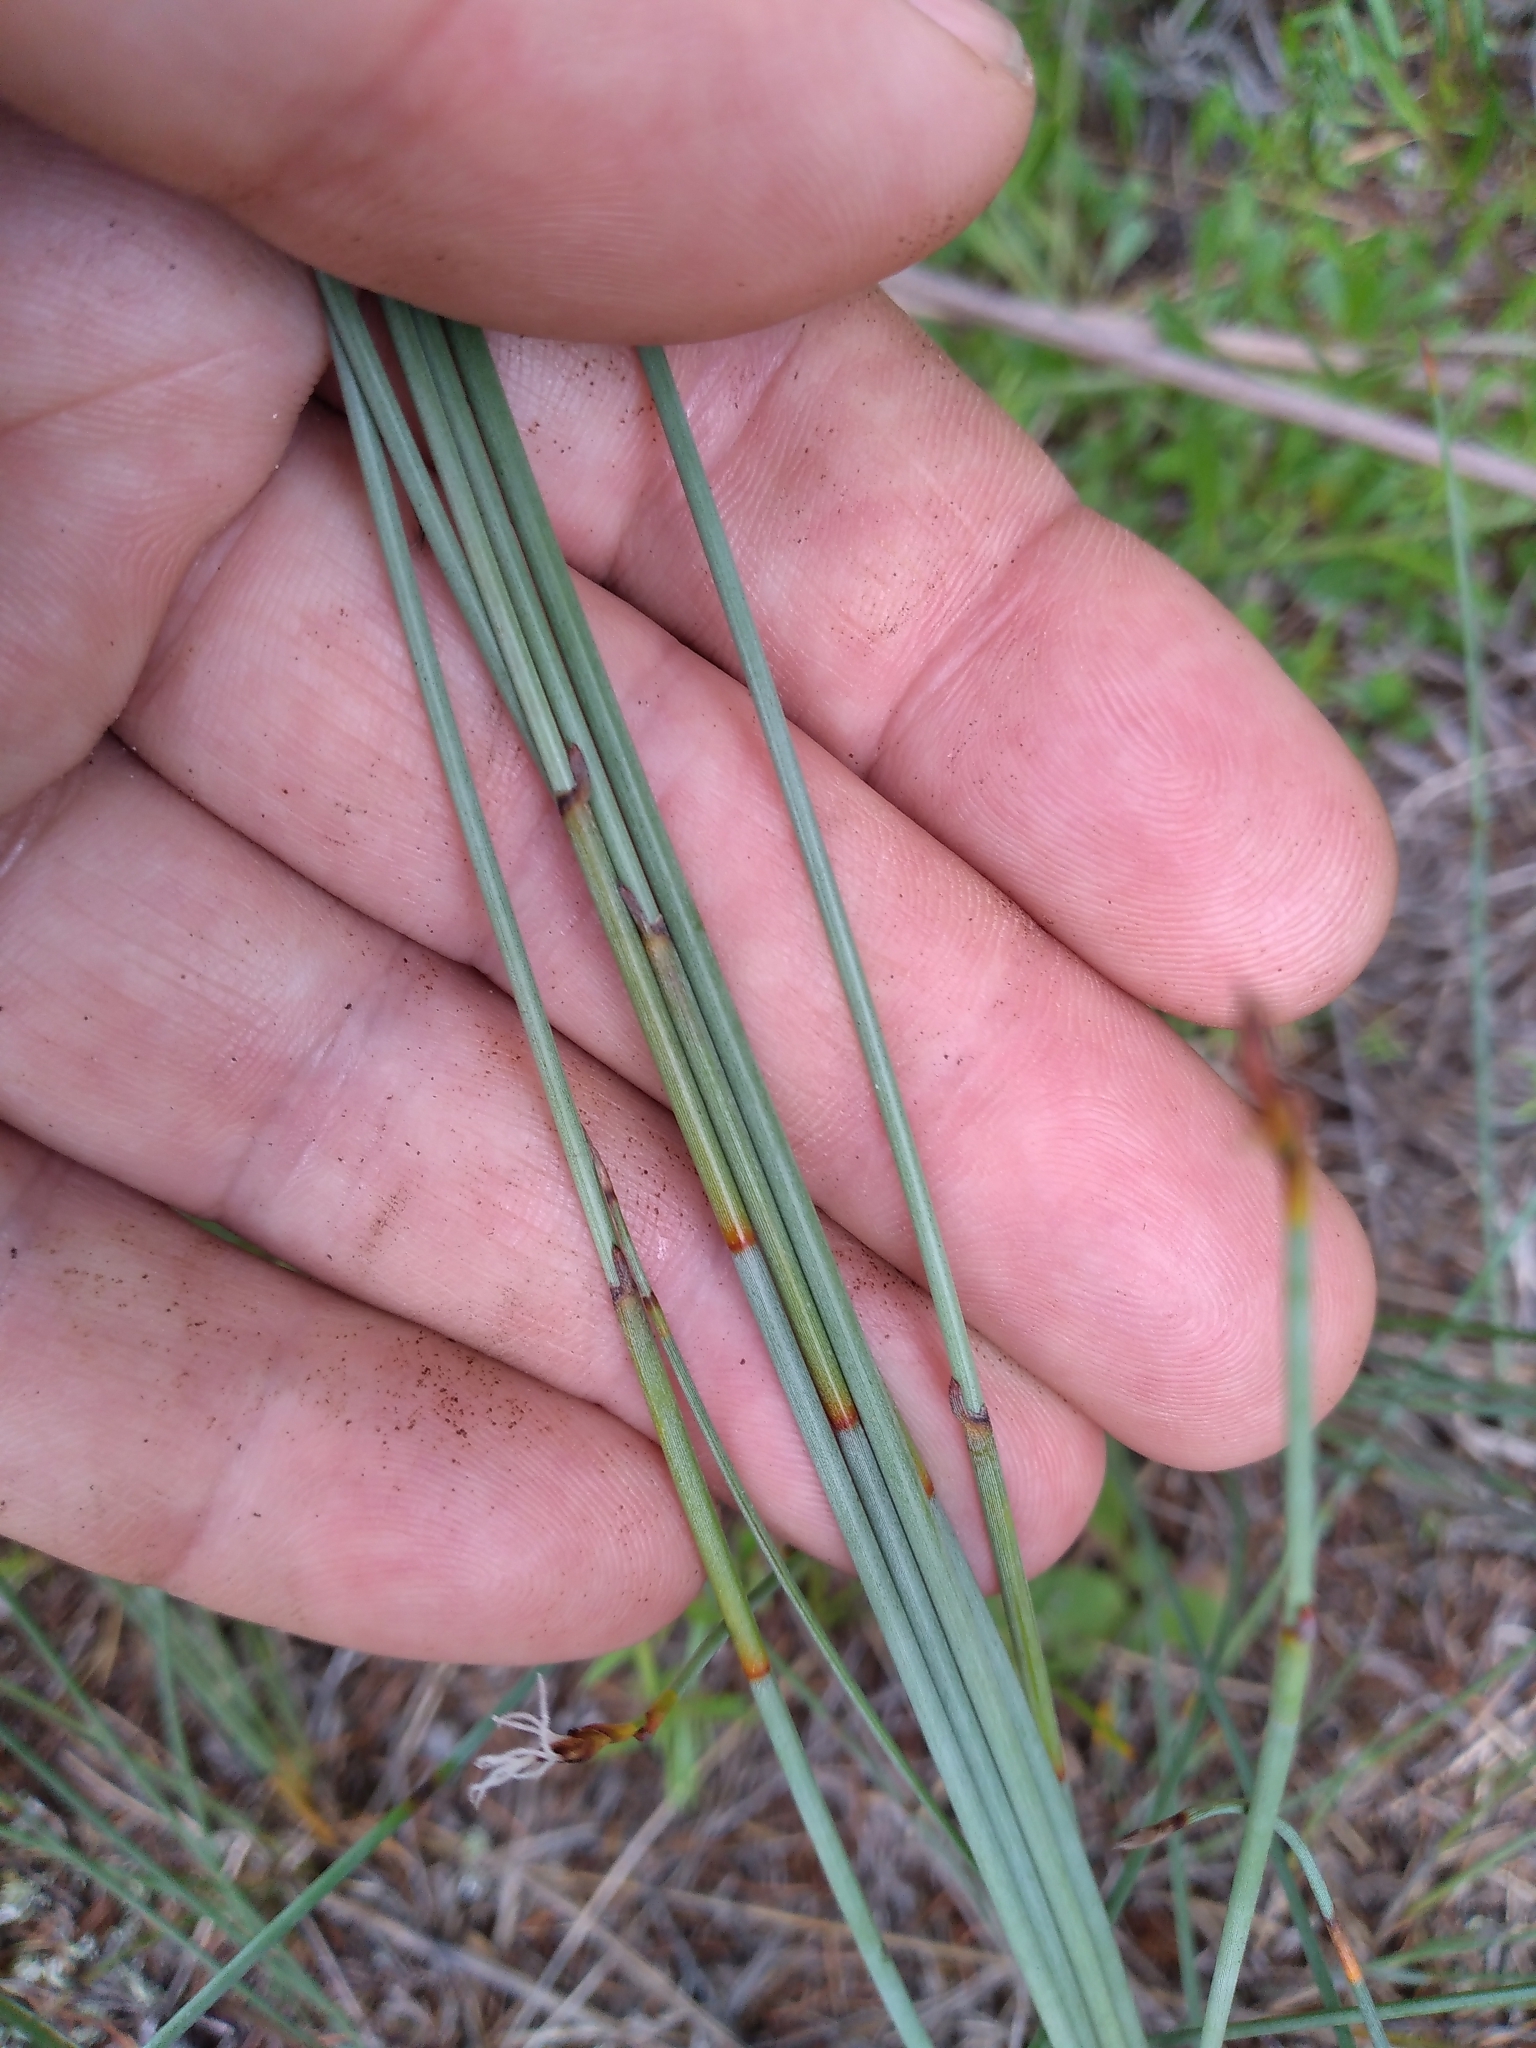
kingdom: Plantae
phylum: Tracheophyta
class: Liliopsida
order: Poales
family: Cyperaceae
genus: Machaerina
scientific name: Machaerina juncea
